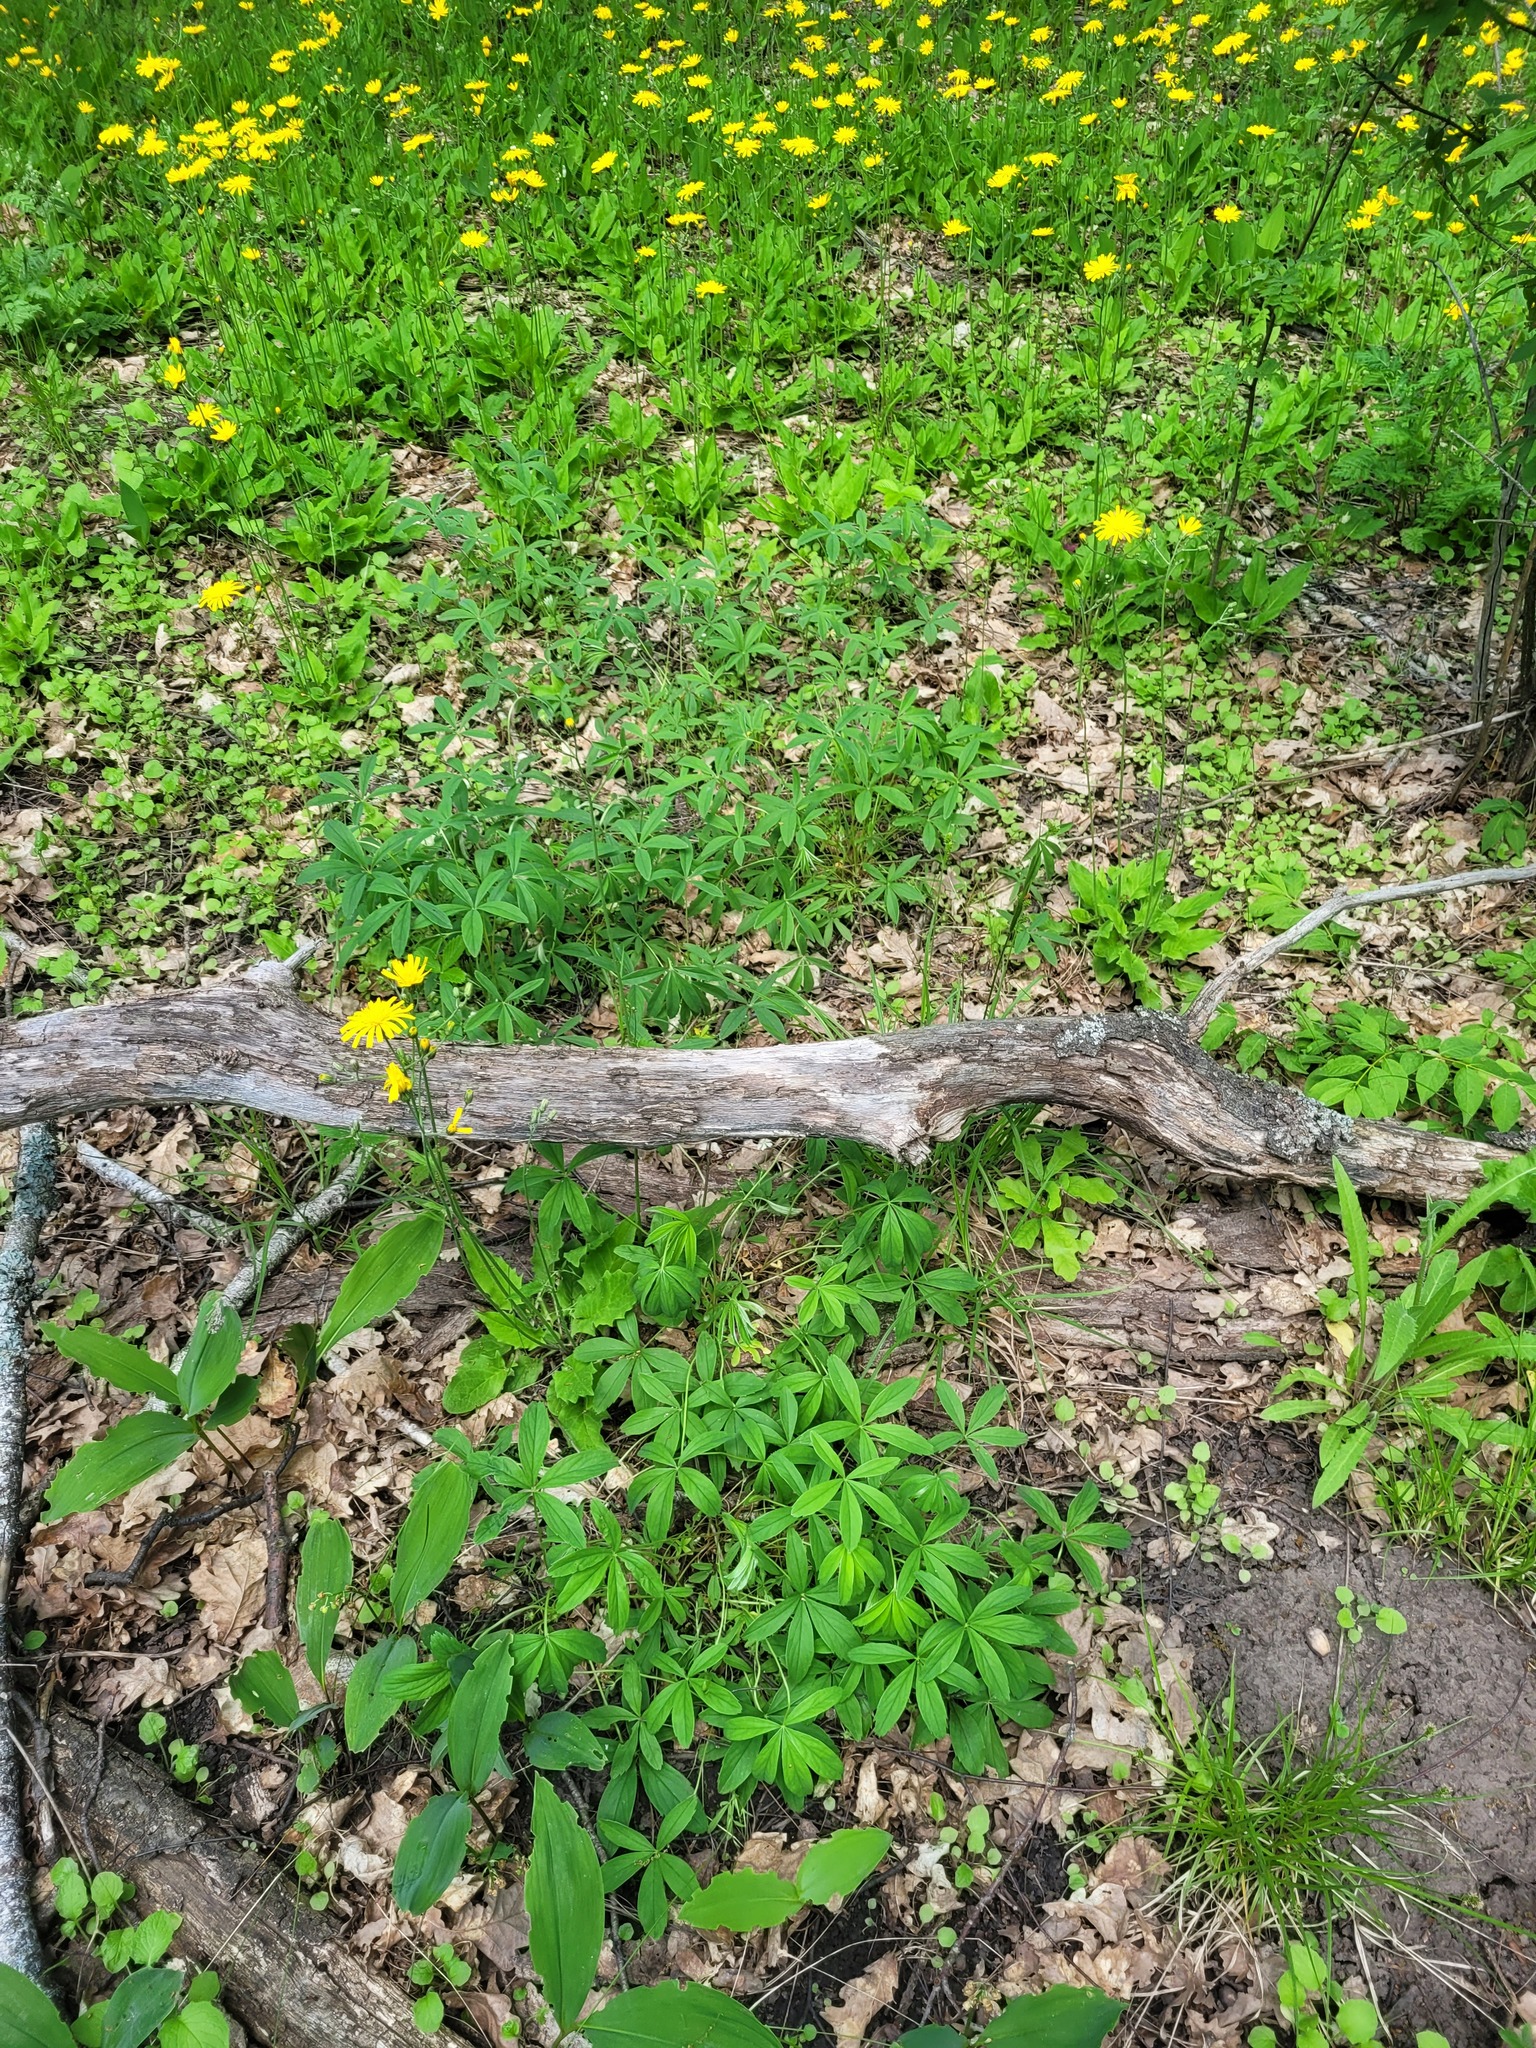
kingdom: Plantae
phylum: Tracheophyta
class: Magnoliopsida
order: Rosales
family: Rosaceae
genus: Potentilla
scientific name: Potentilla alba
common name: White cinquefoil
